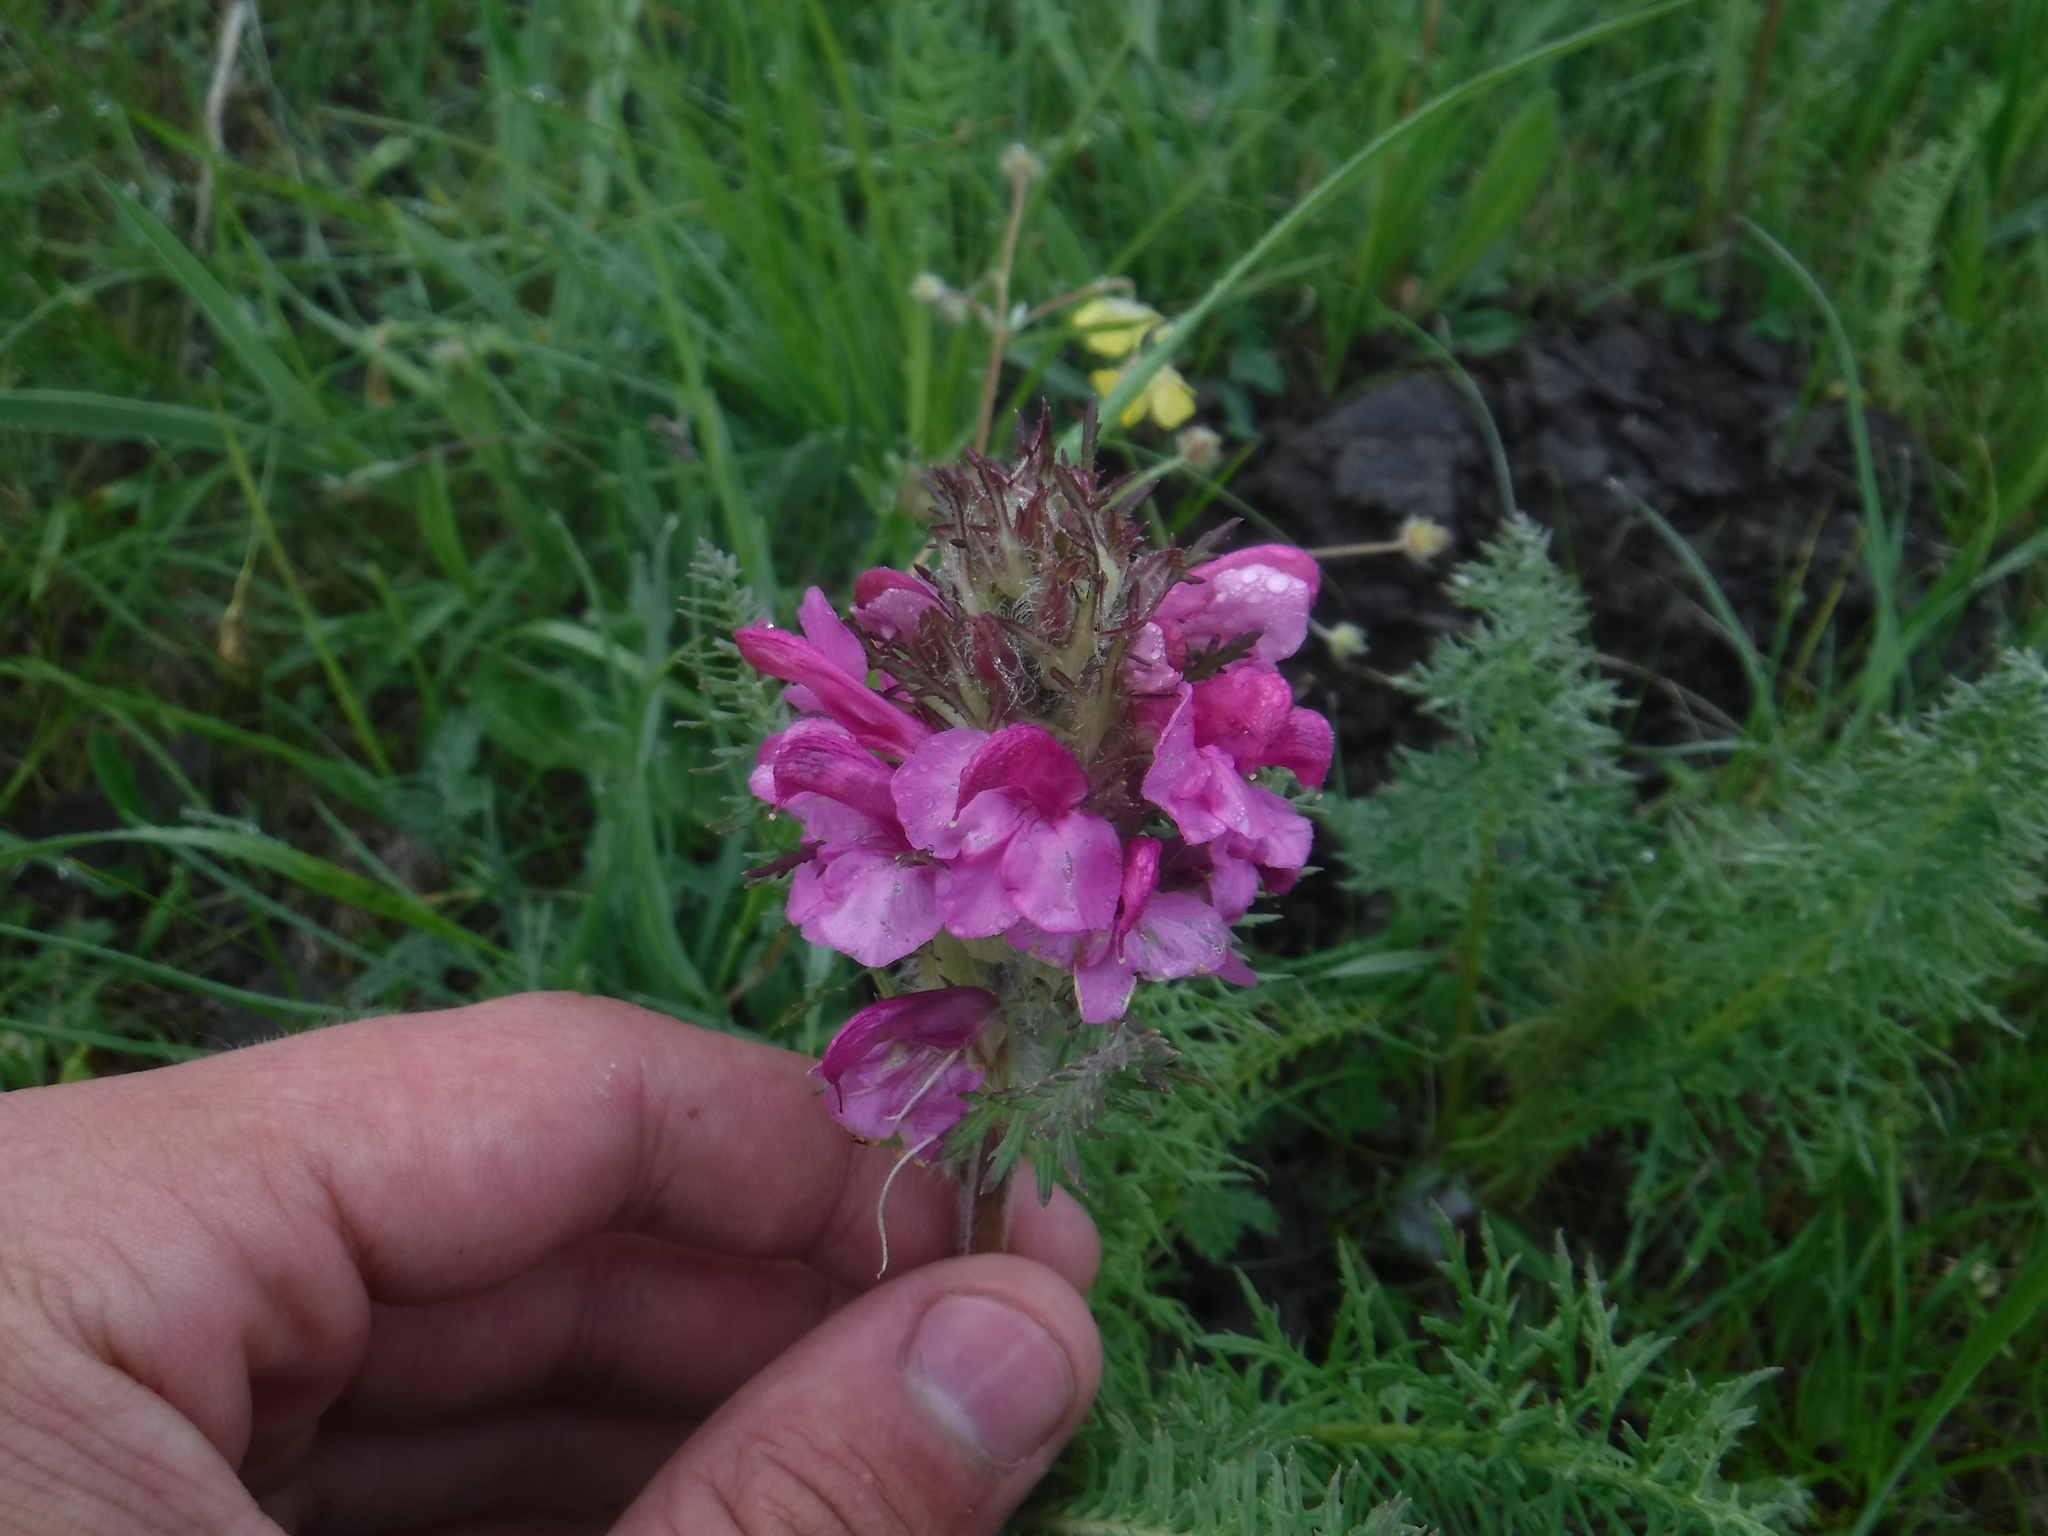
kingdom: Plantae
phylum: Tracheophyta
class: Magnoliopsida
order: Lamiales
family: Orobanchaceae
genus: Pedicularis
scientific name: Pedicularis rubens
